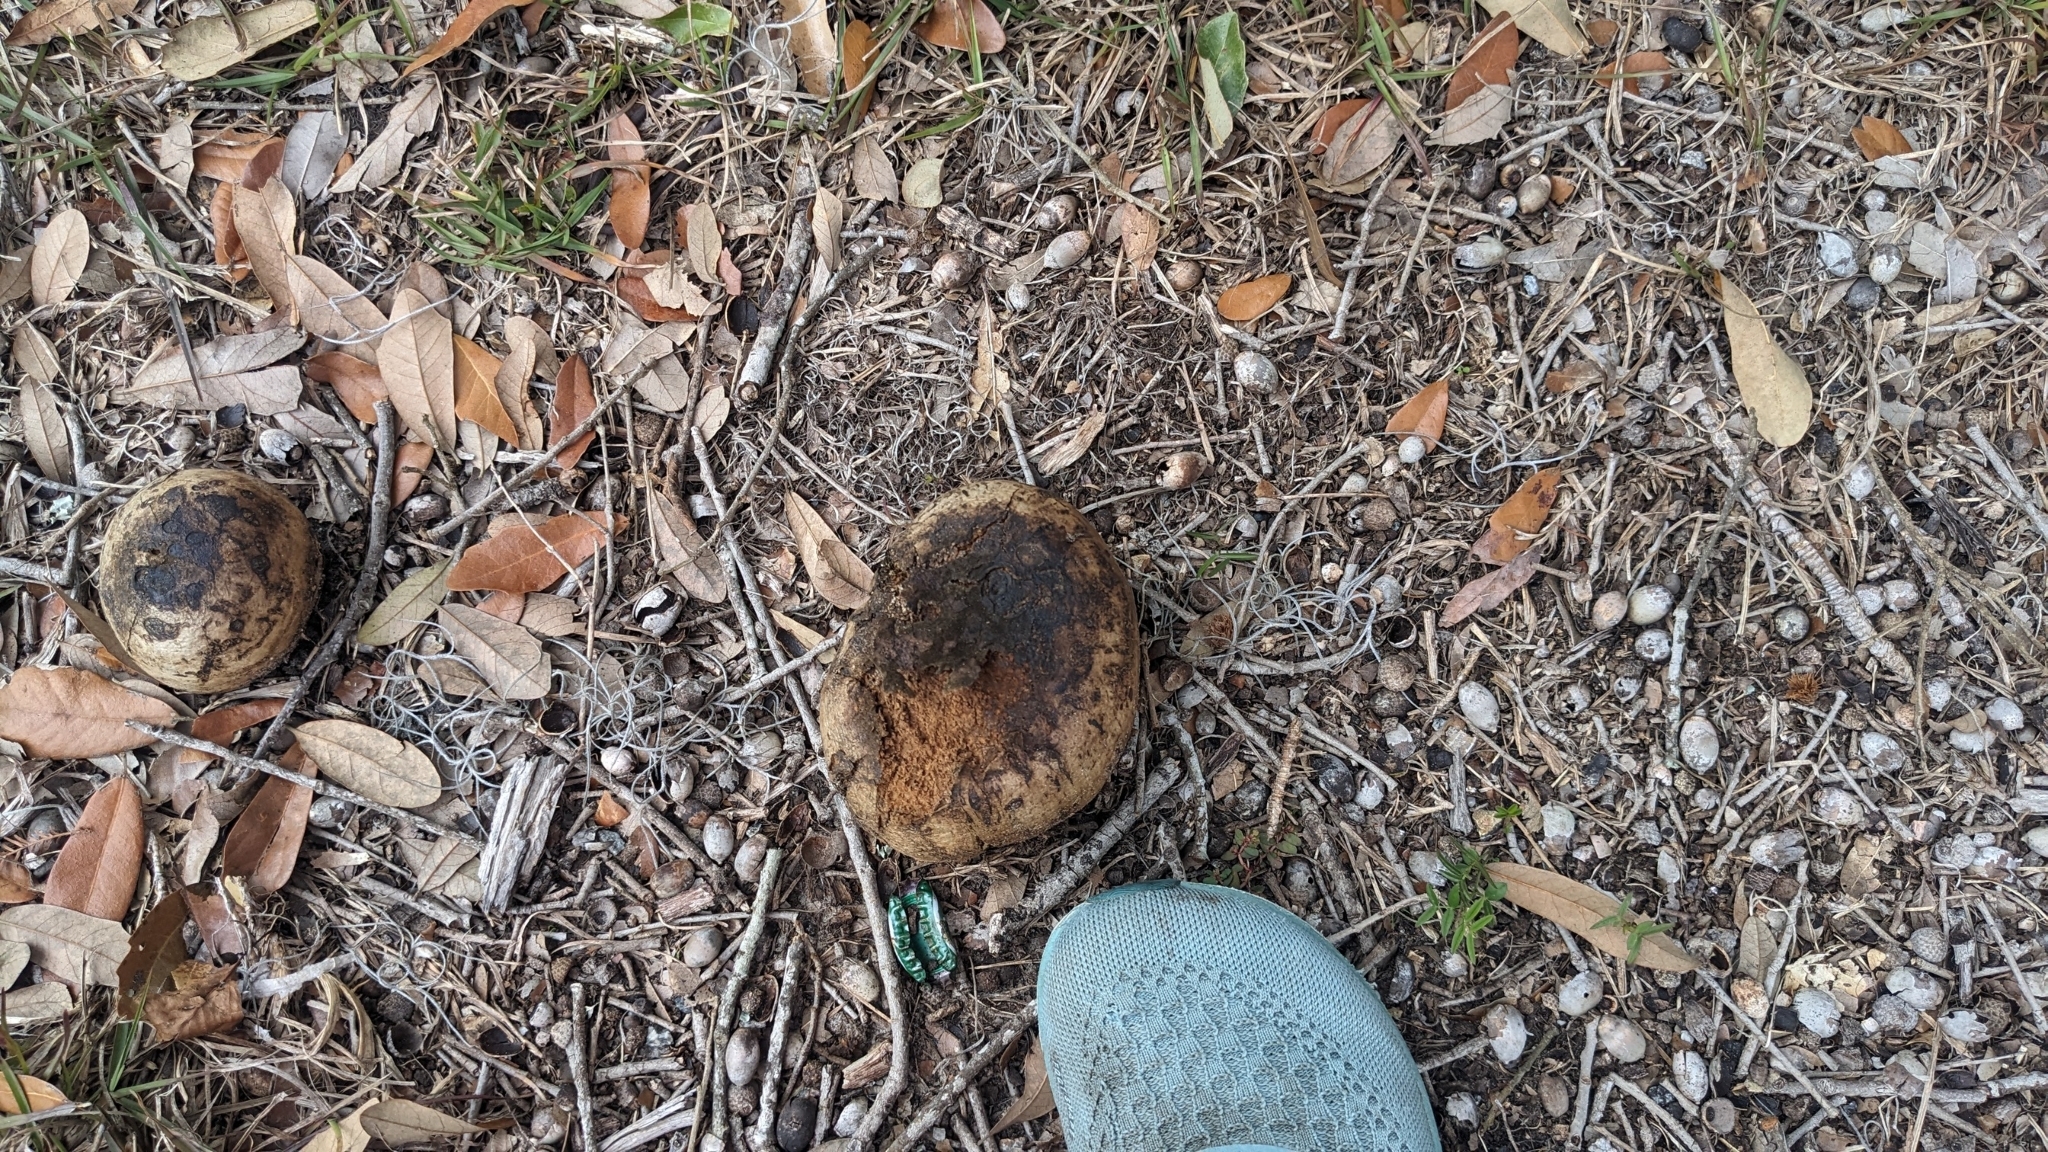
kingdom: Fungi
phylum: Basidiomycota
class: Agaricomycetes
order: Boletales
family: Sclerodermataceae
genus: Pisolithus
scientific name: Pisolithus arenarius
